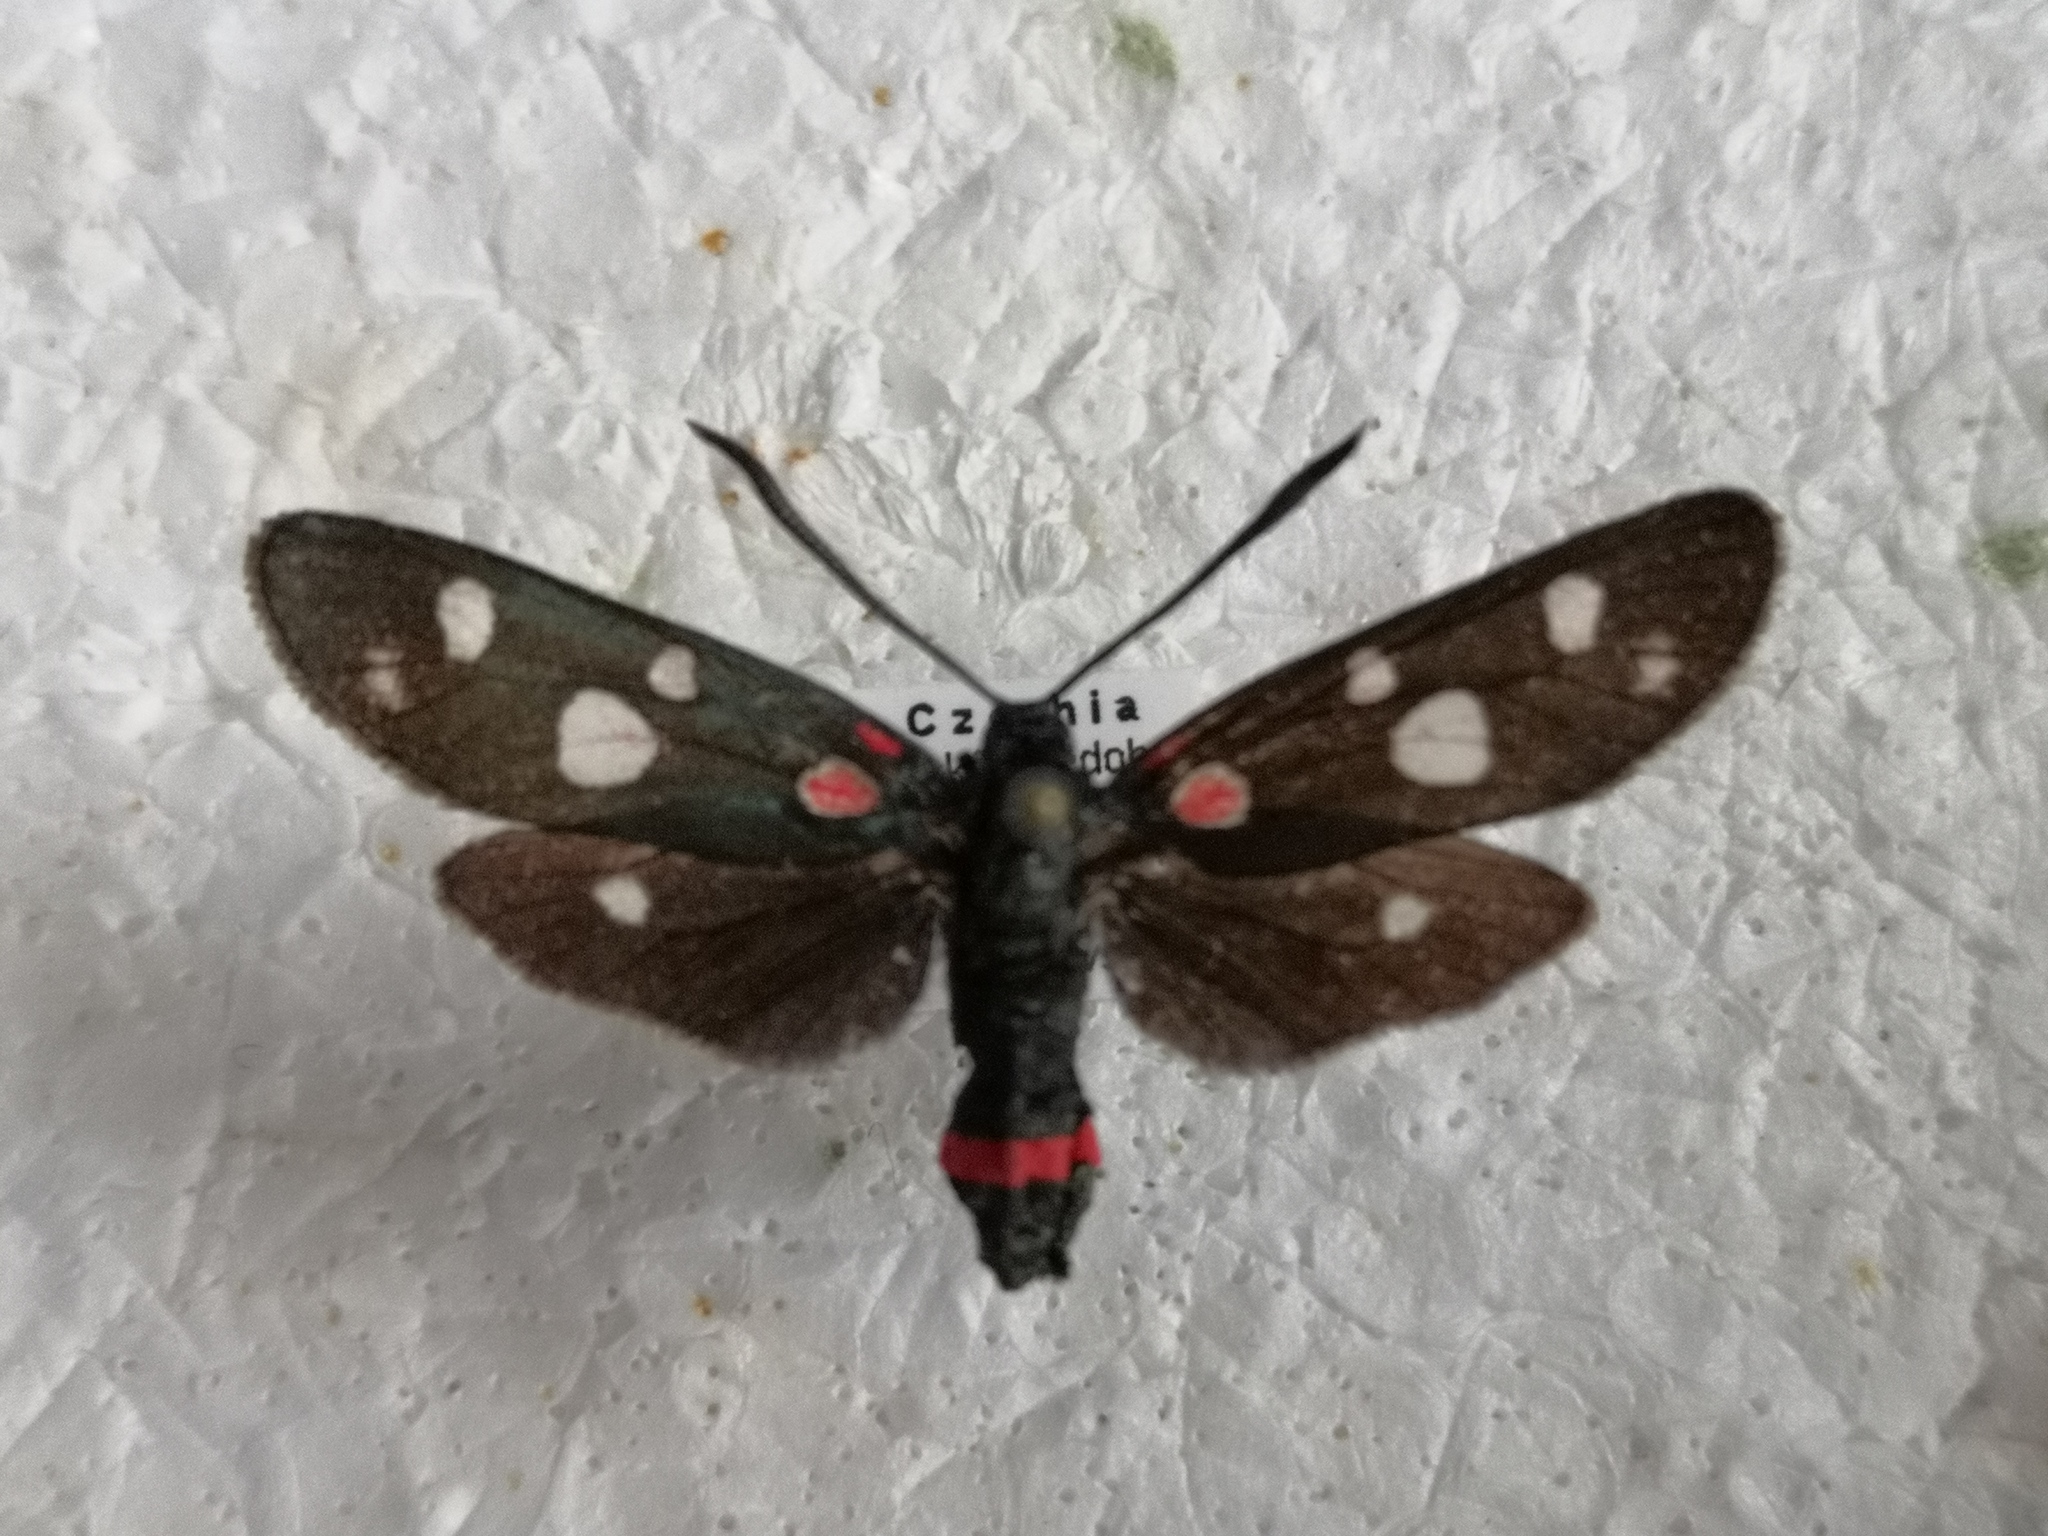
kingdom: Animalia
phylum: Arthropoda
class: Insecta
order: Lepidoptera
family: Zygaenidae
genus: Zygaena
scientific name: Zygaena ephialtes
